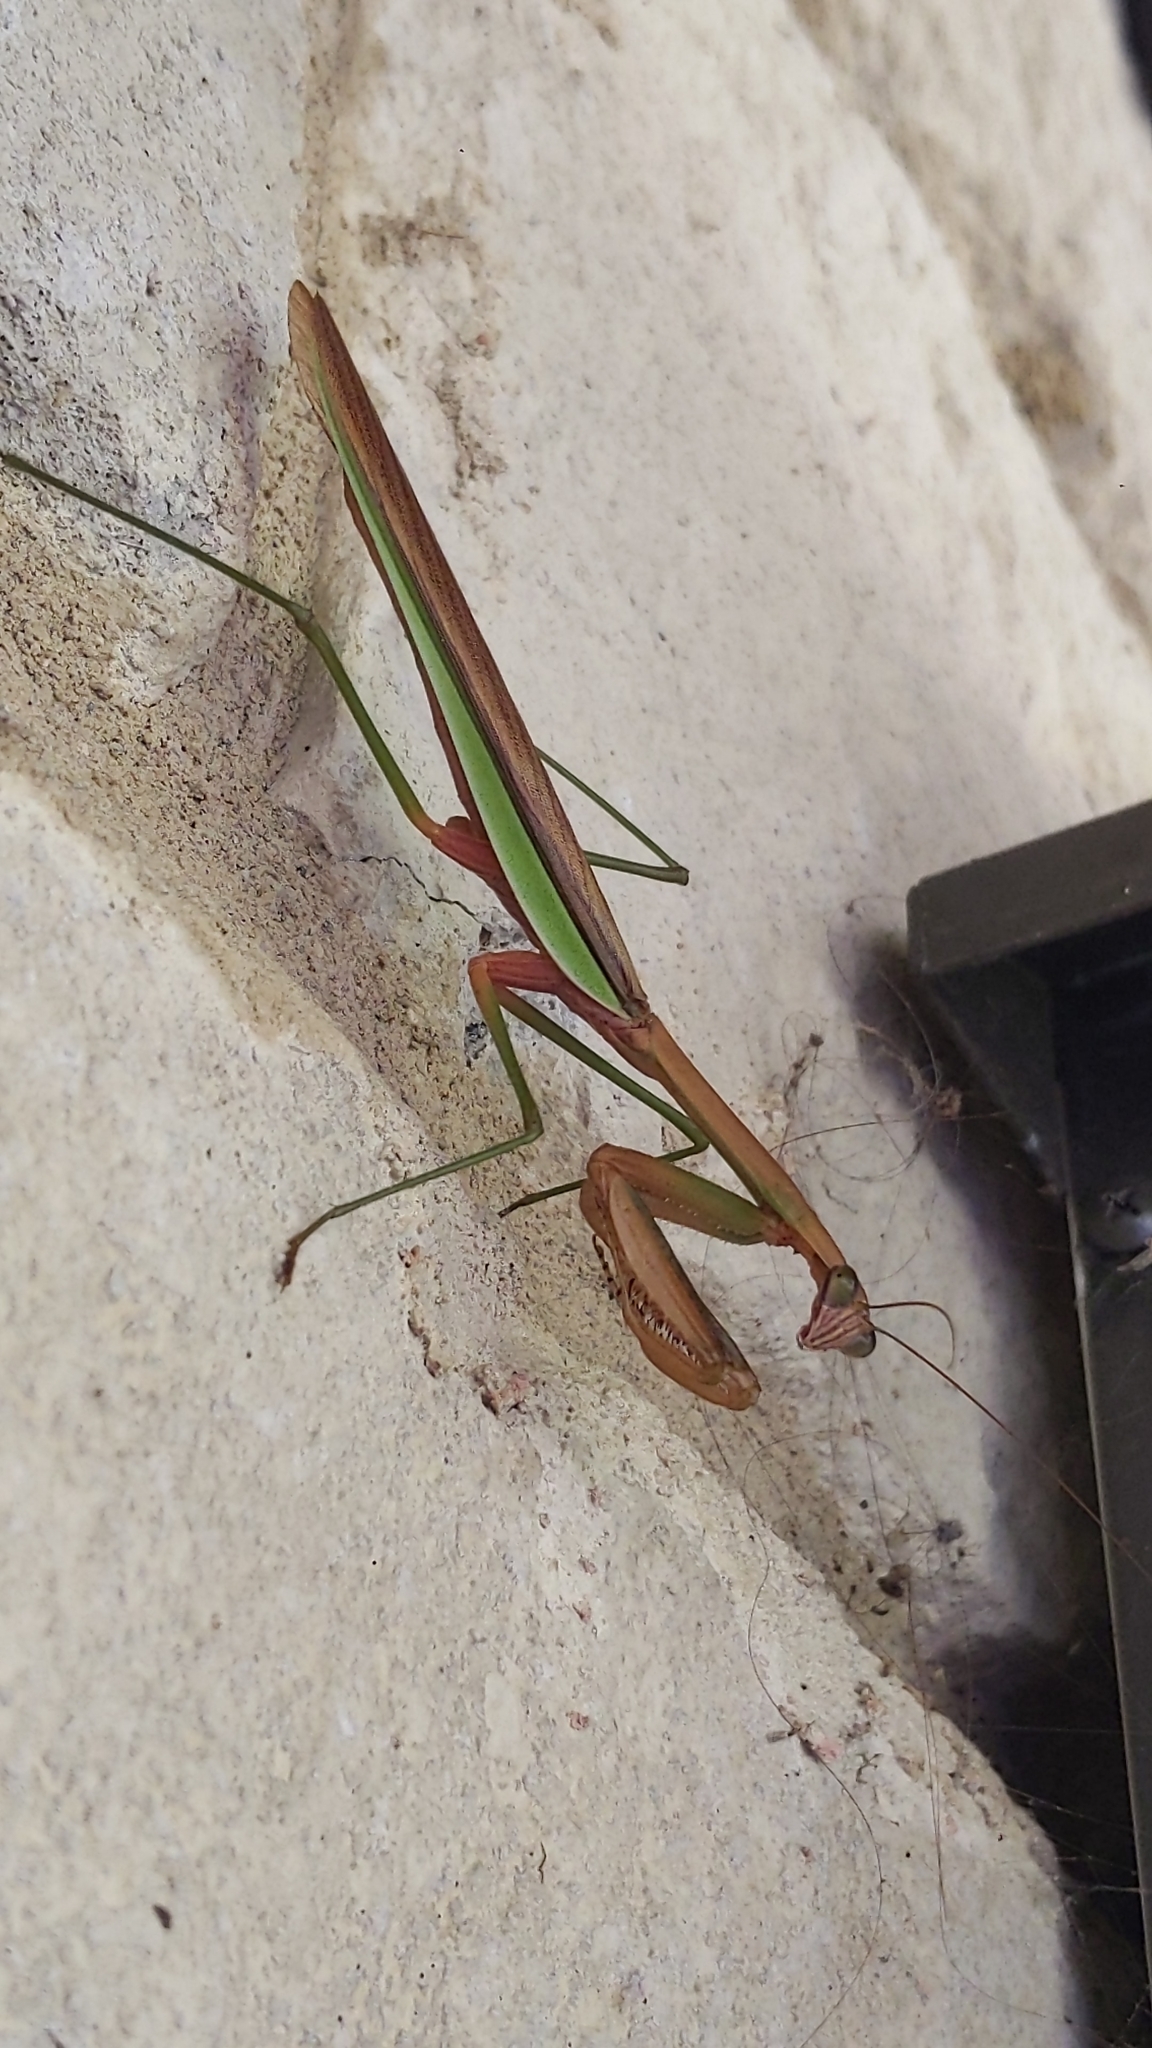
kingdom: Animalia
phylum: Arthropoda
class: Insecta
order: Mantodea
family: Mantidae
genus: Tenodera
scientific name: Tenodera sinensis
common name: Chinese mantis
